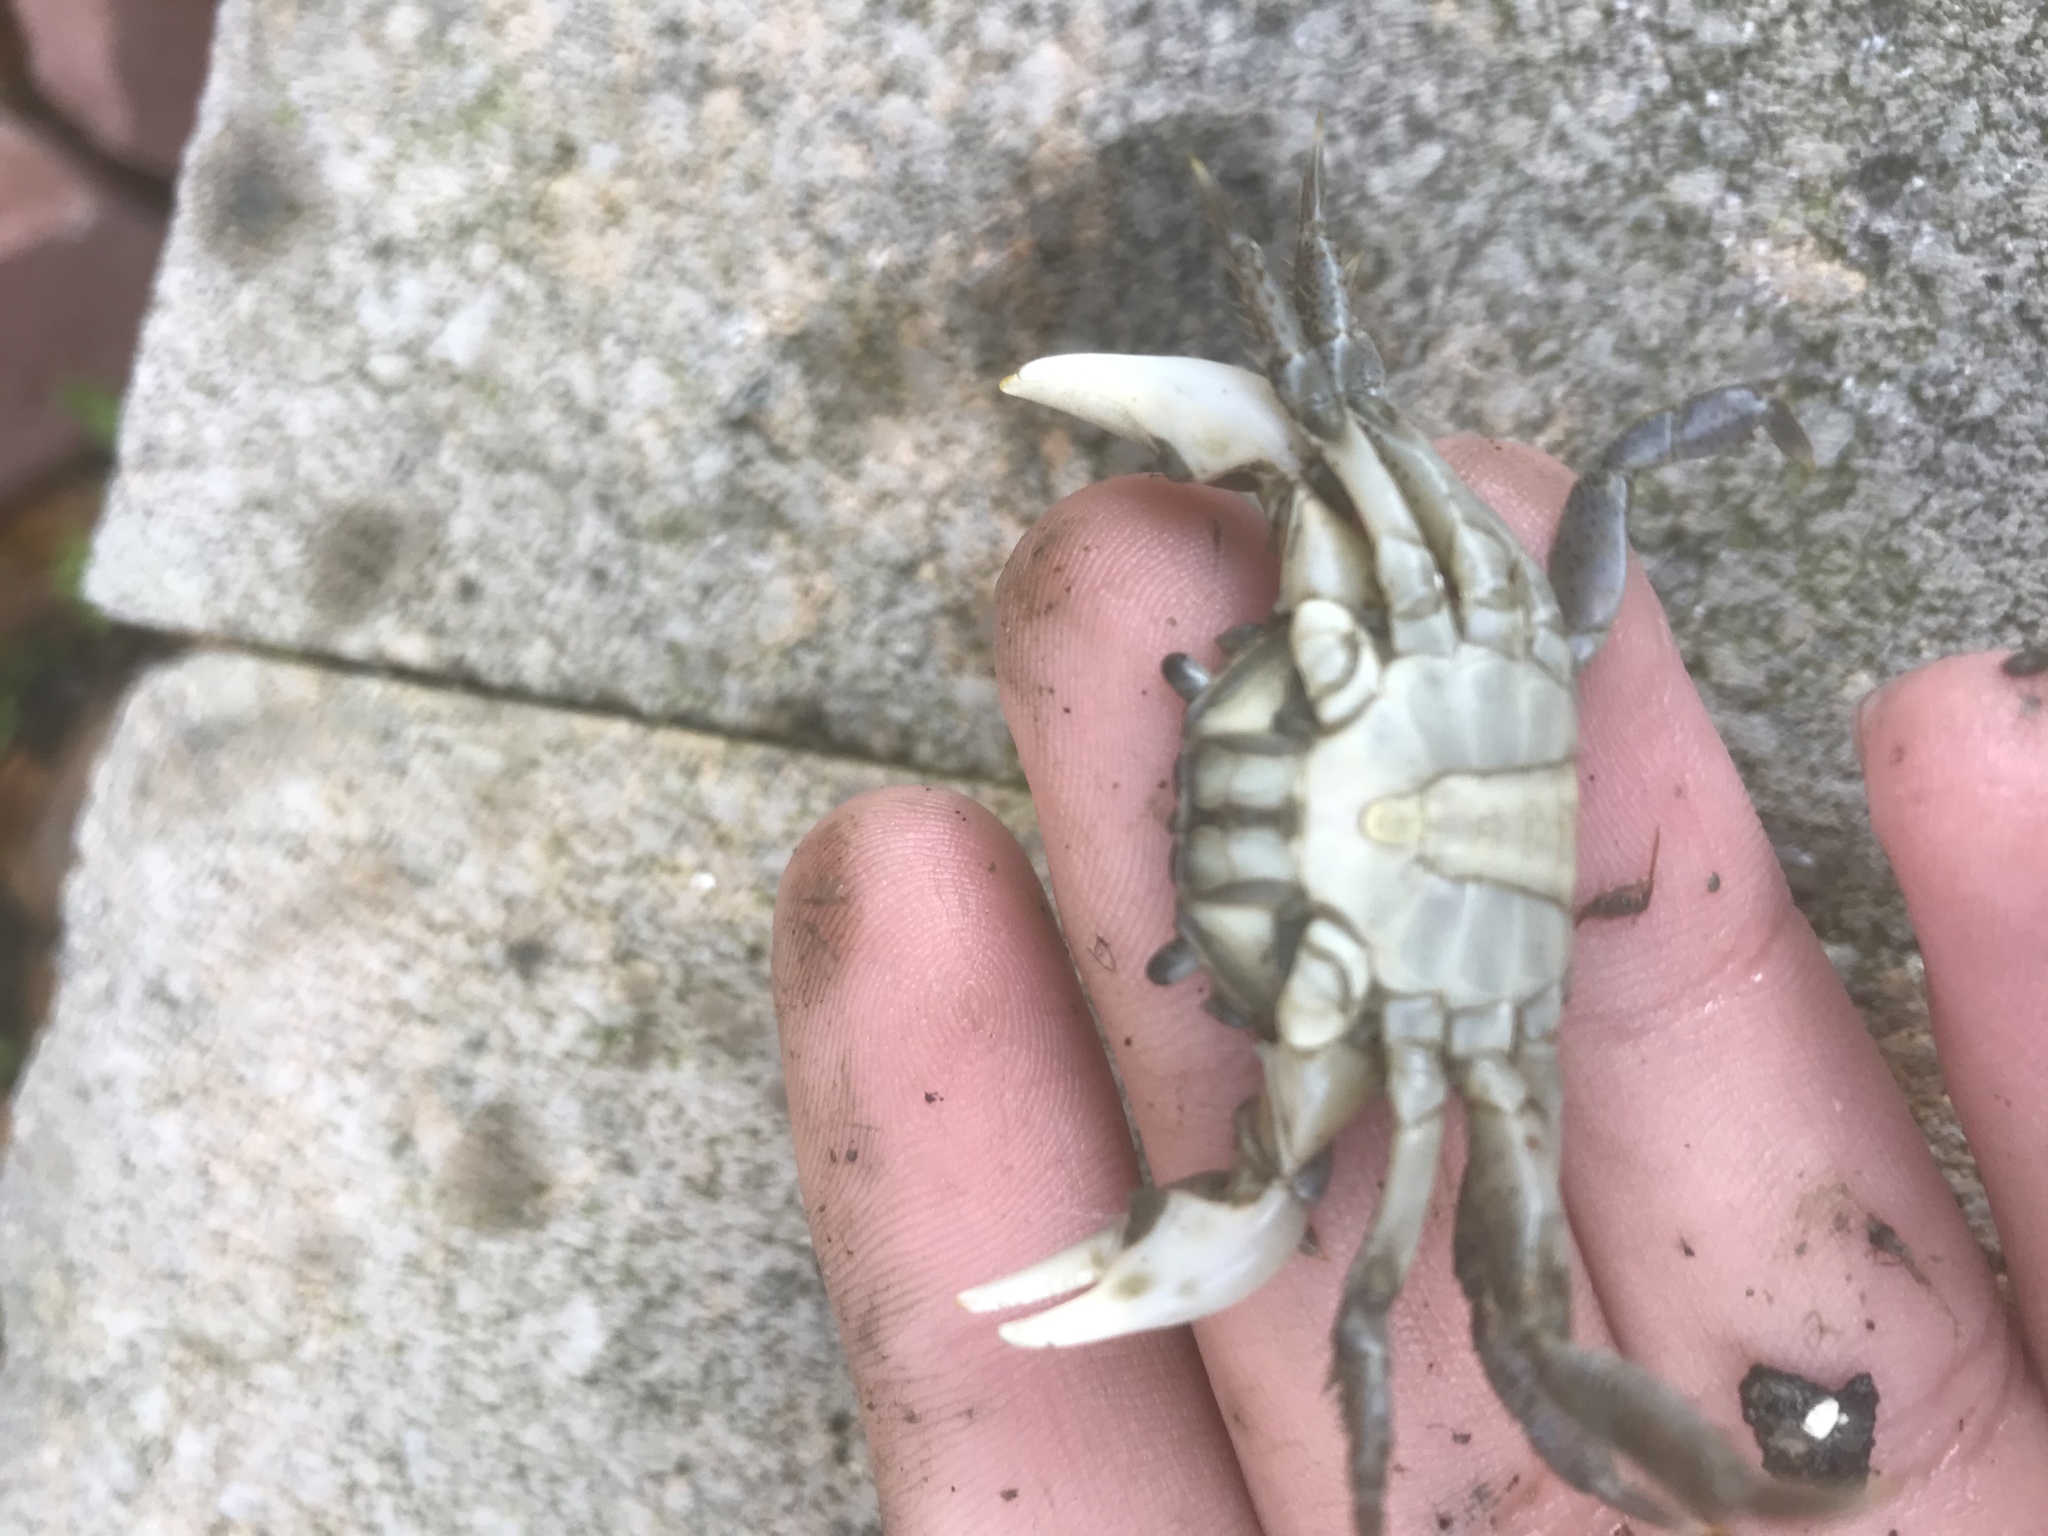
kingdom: Animalia
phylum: Arthropoda
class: Malacostraca
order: Decapoda
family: Varunidae
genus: Hemigrapsus
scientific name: Hemigrapsus oregonensis
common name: Yellow shore crab
